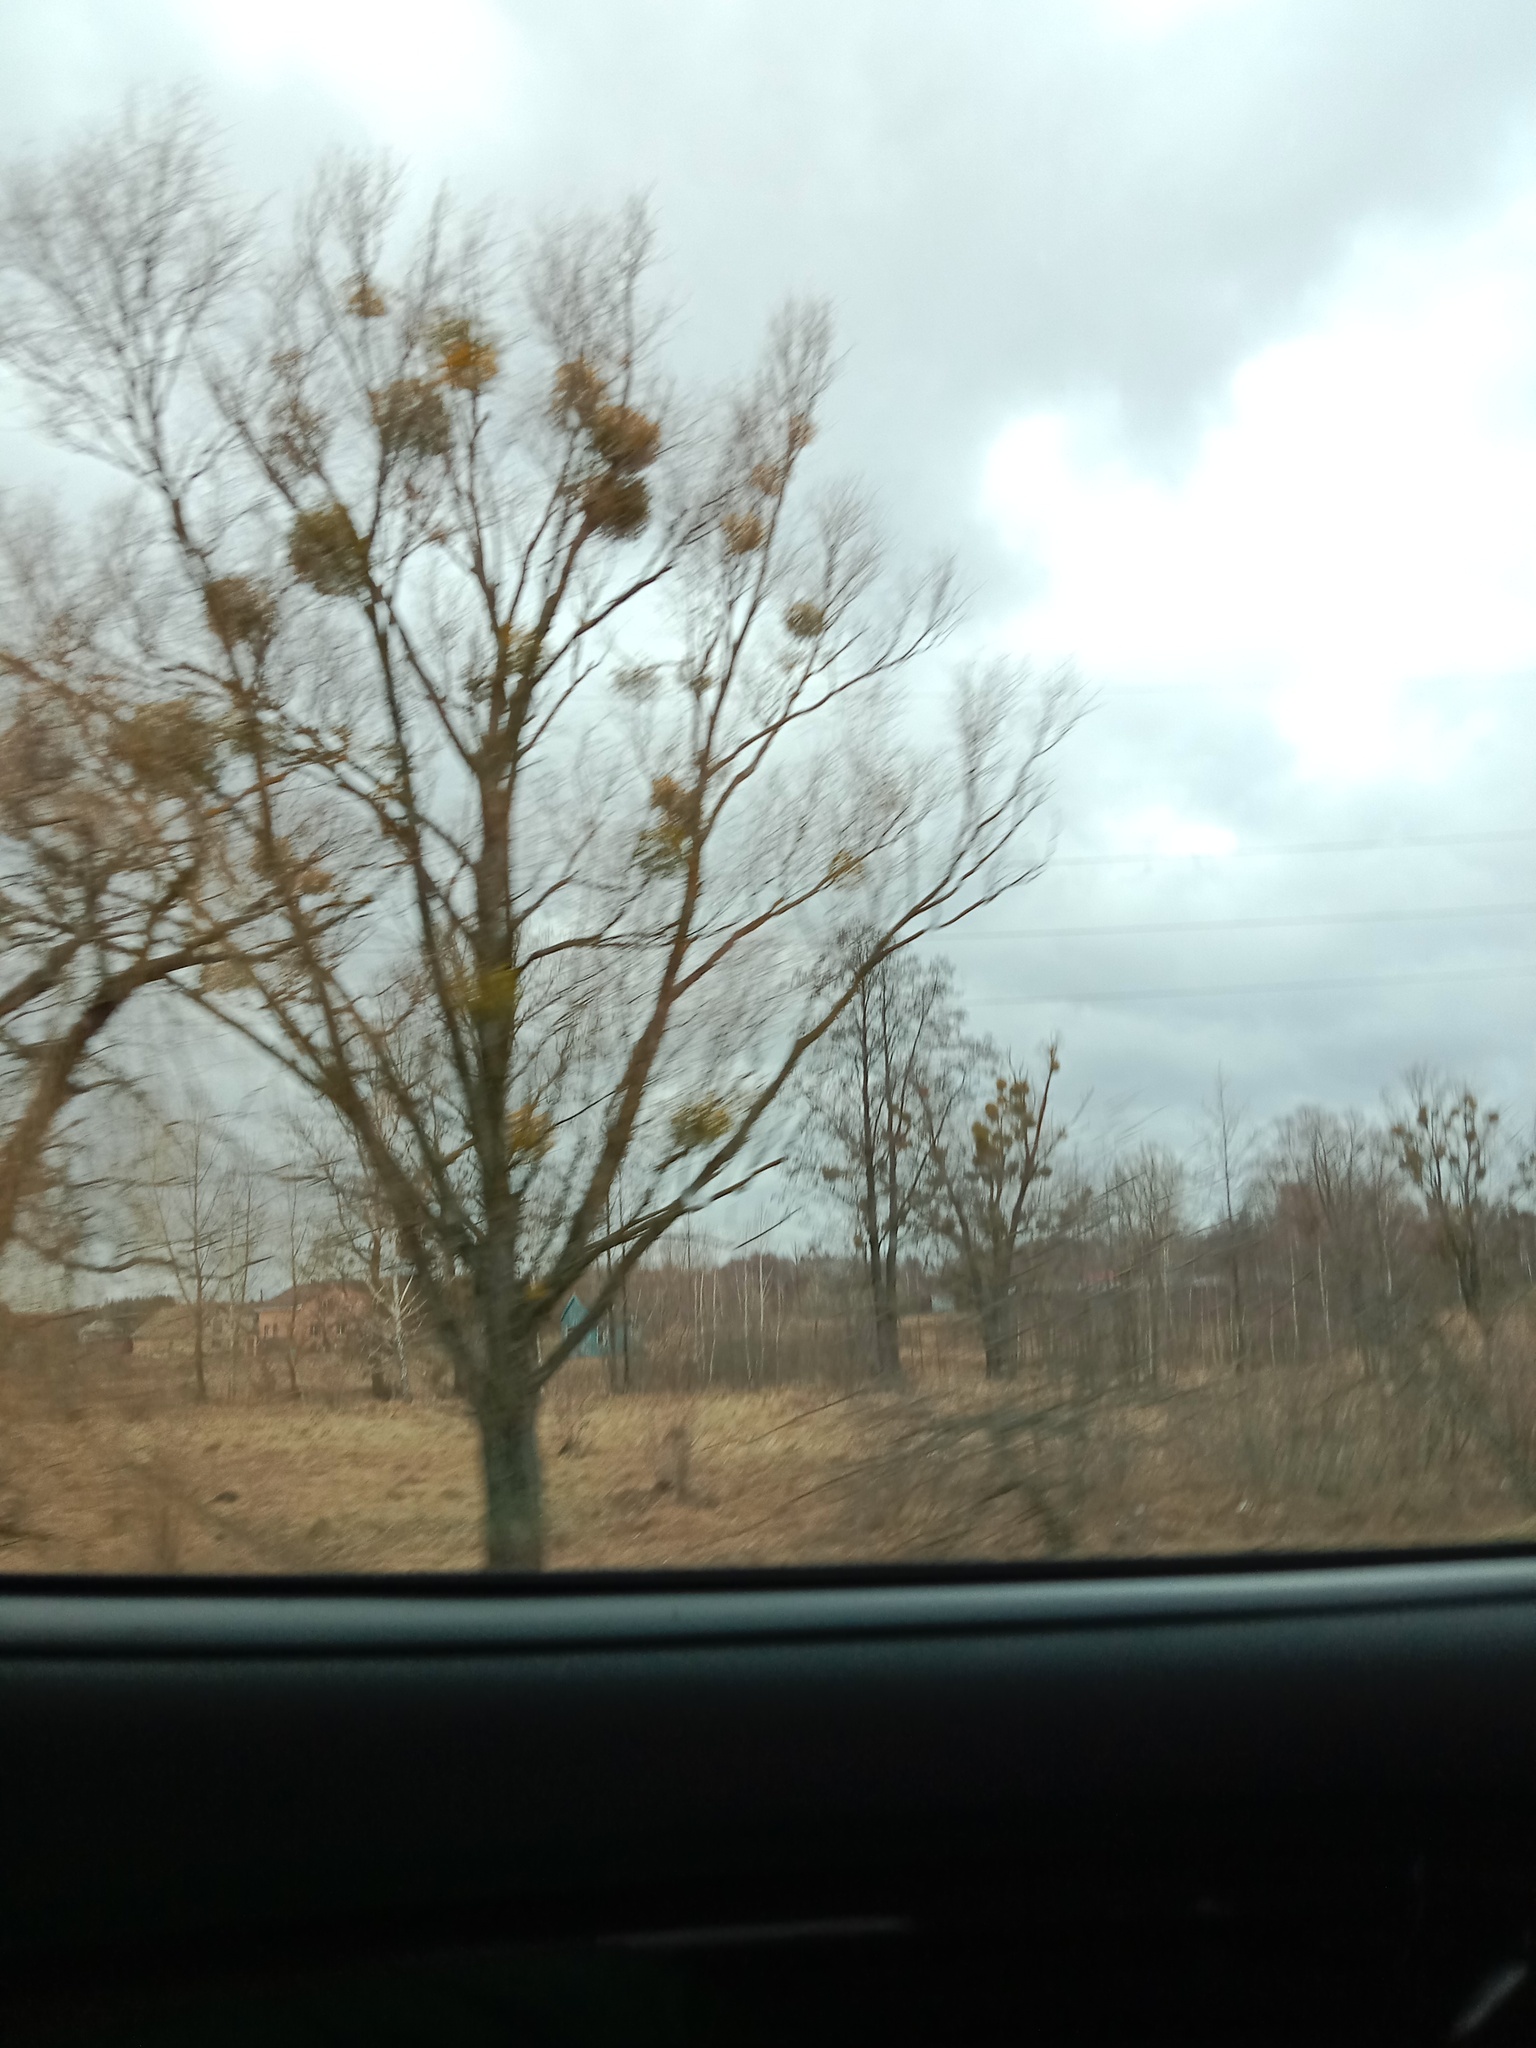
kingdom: Plantae
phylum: Tracheophyta
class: Magnoliopsida
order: Santalales
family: Viscaceae
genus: Viscum
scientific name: Viscum album
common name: Mistletoe
